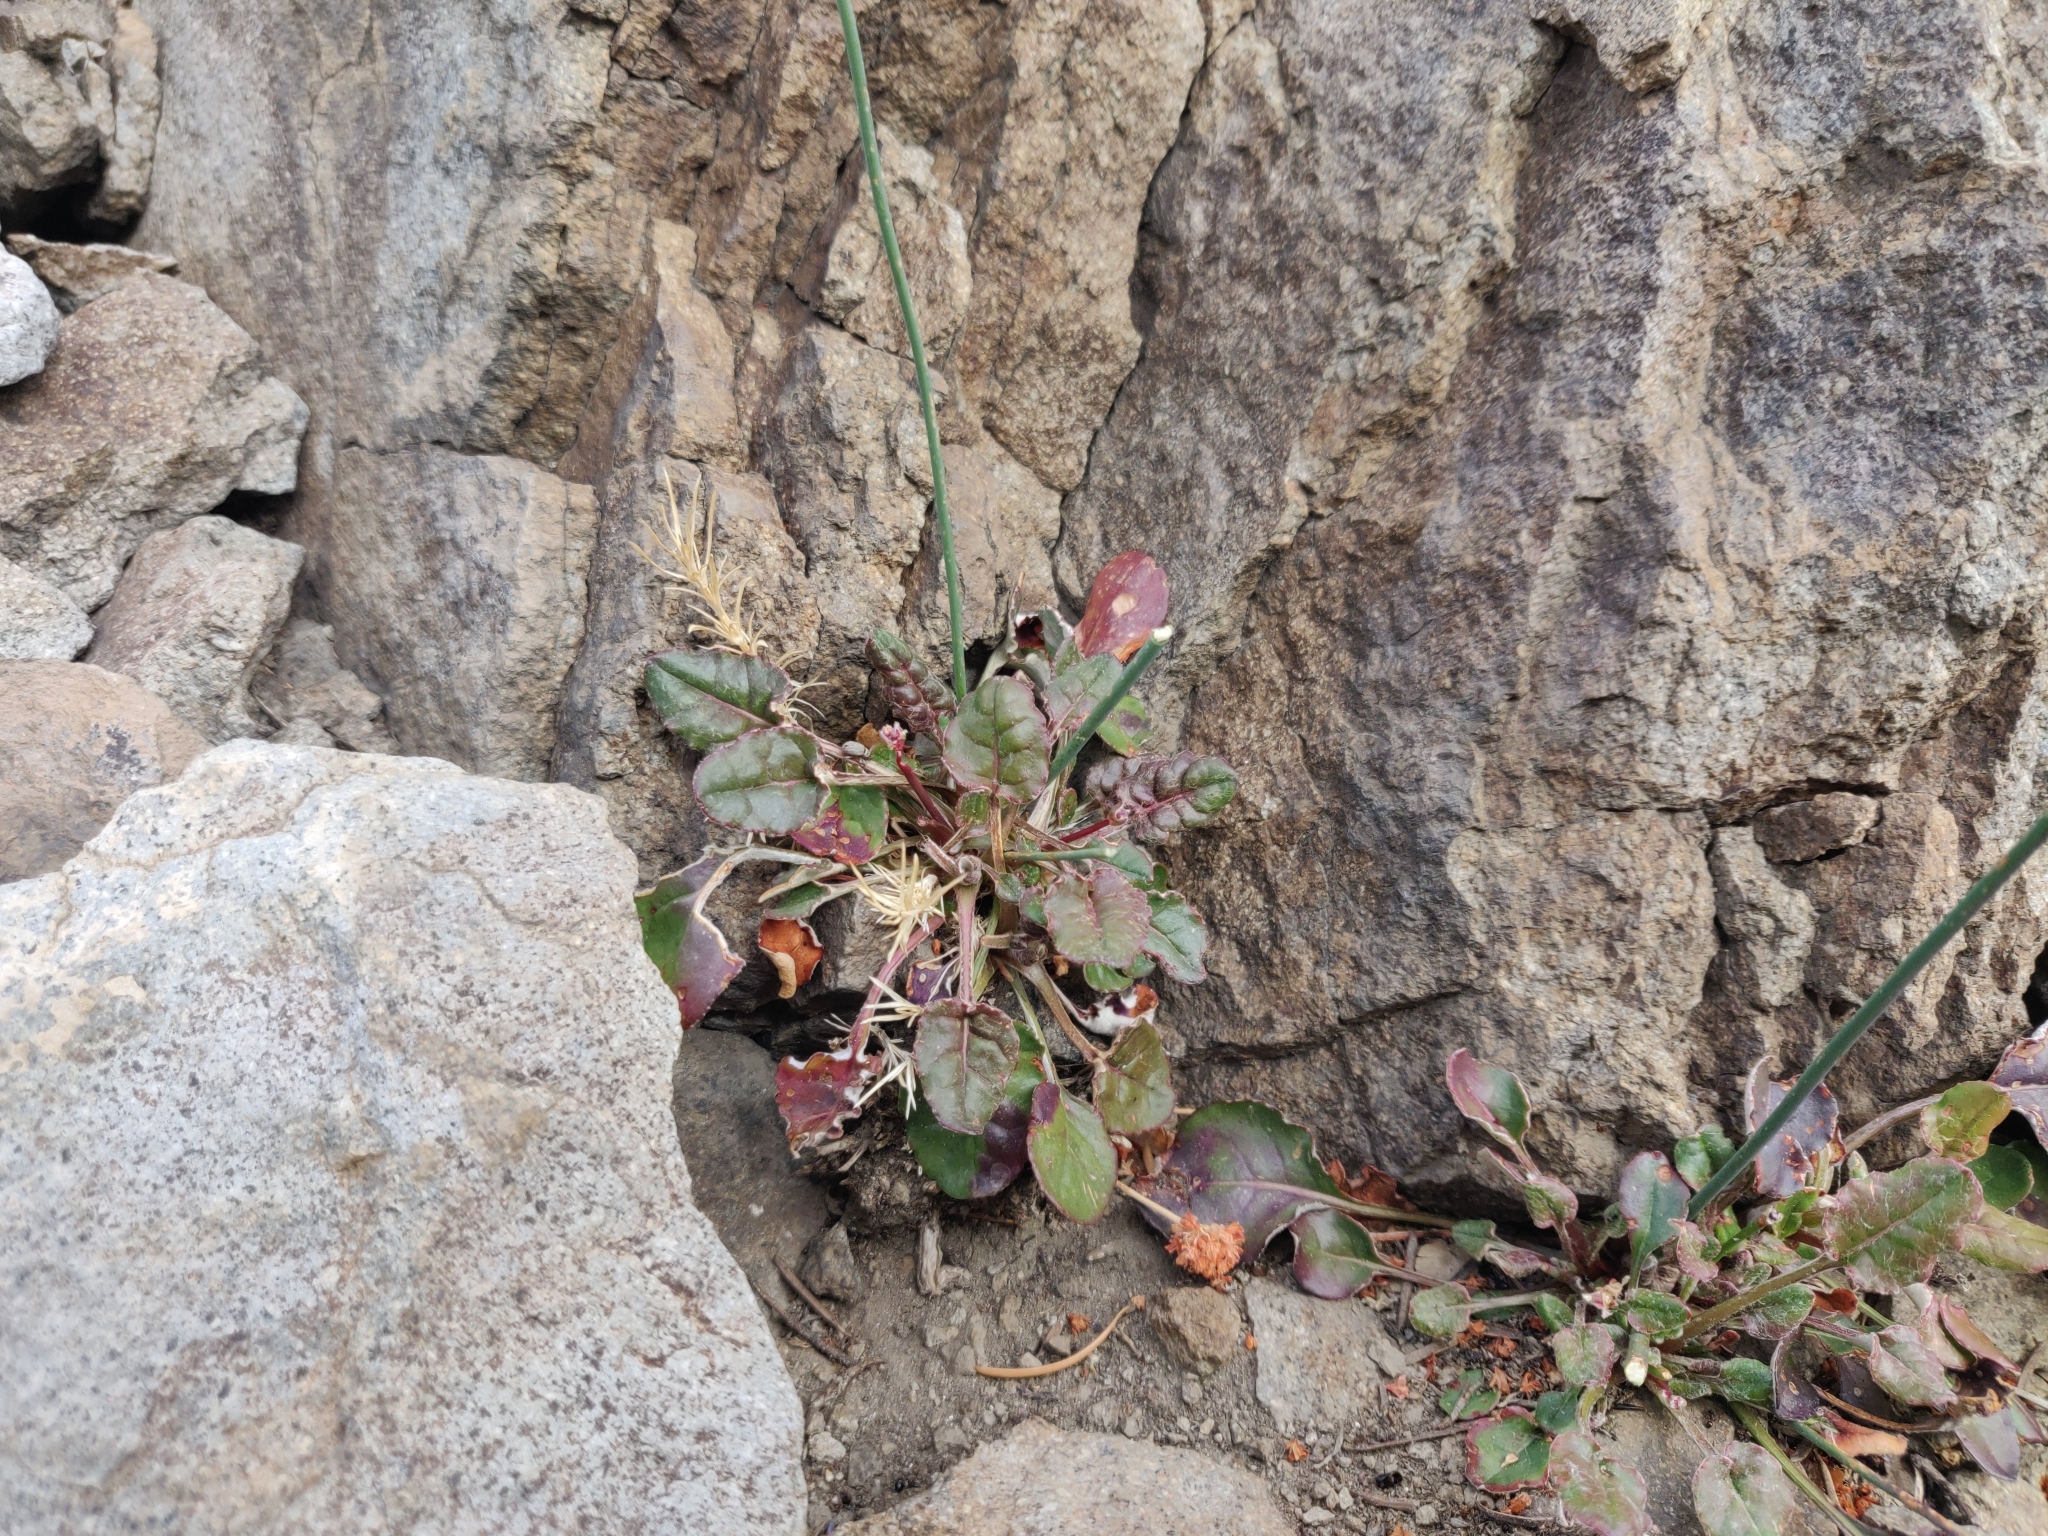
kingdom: Plantae
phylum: Tracheophyta
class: Magnoliopsida
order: Caryophyllales
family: Polygonaceae
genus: Eriogonum
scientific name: Eriogonum nudum
